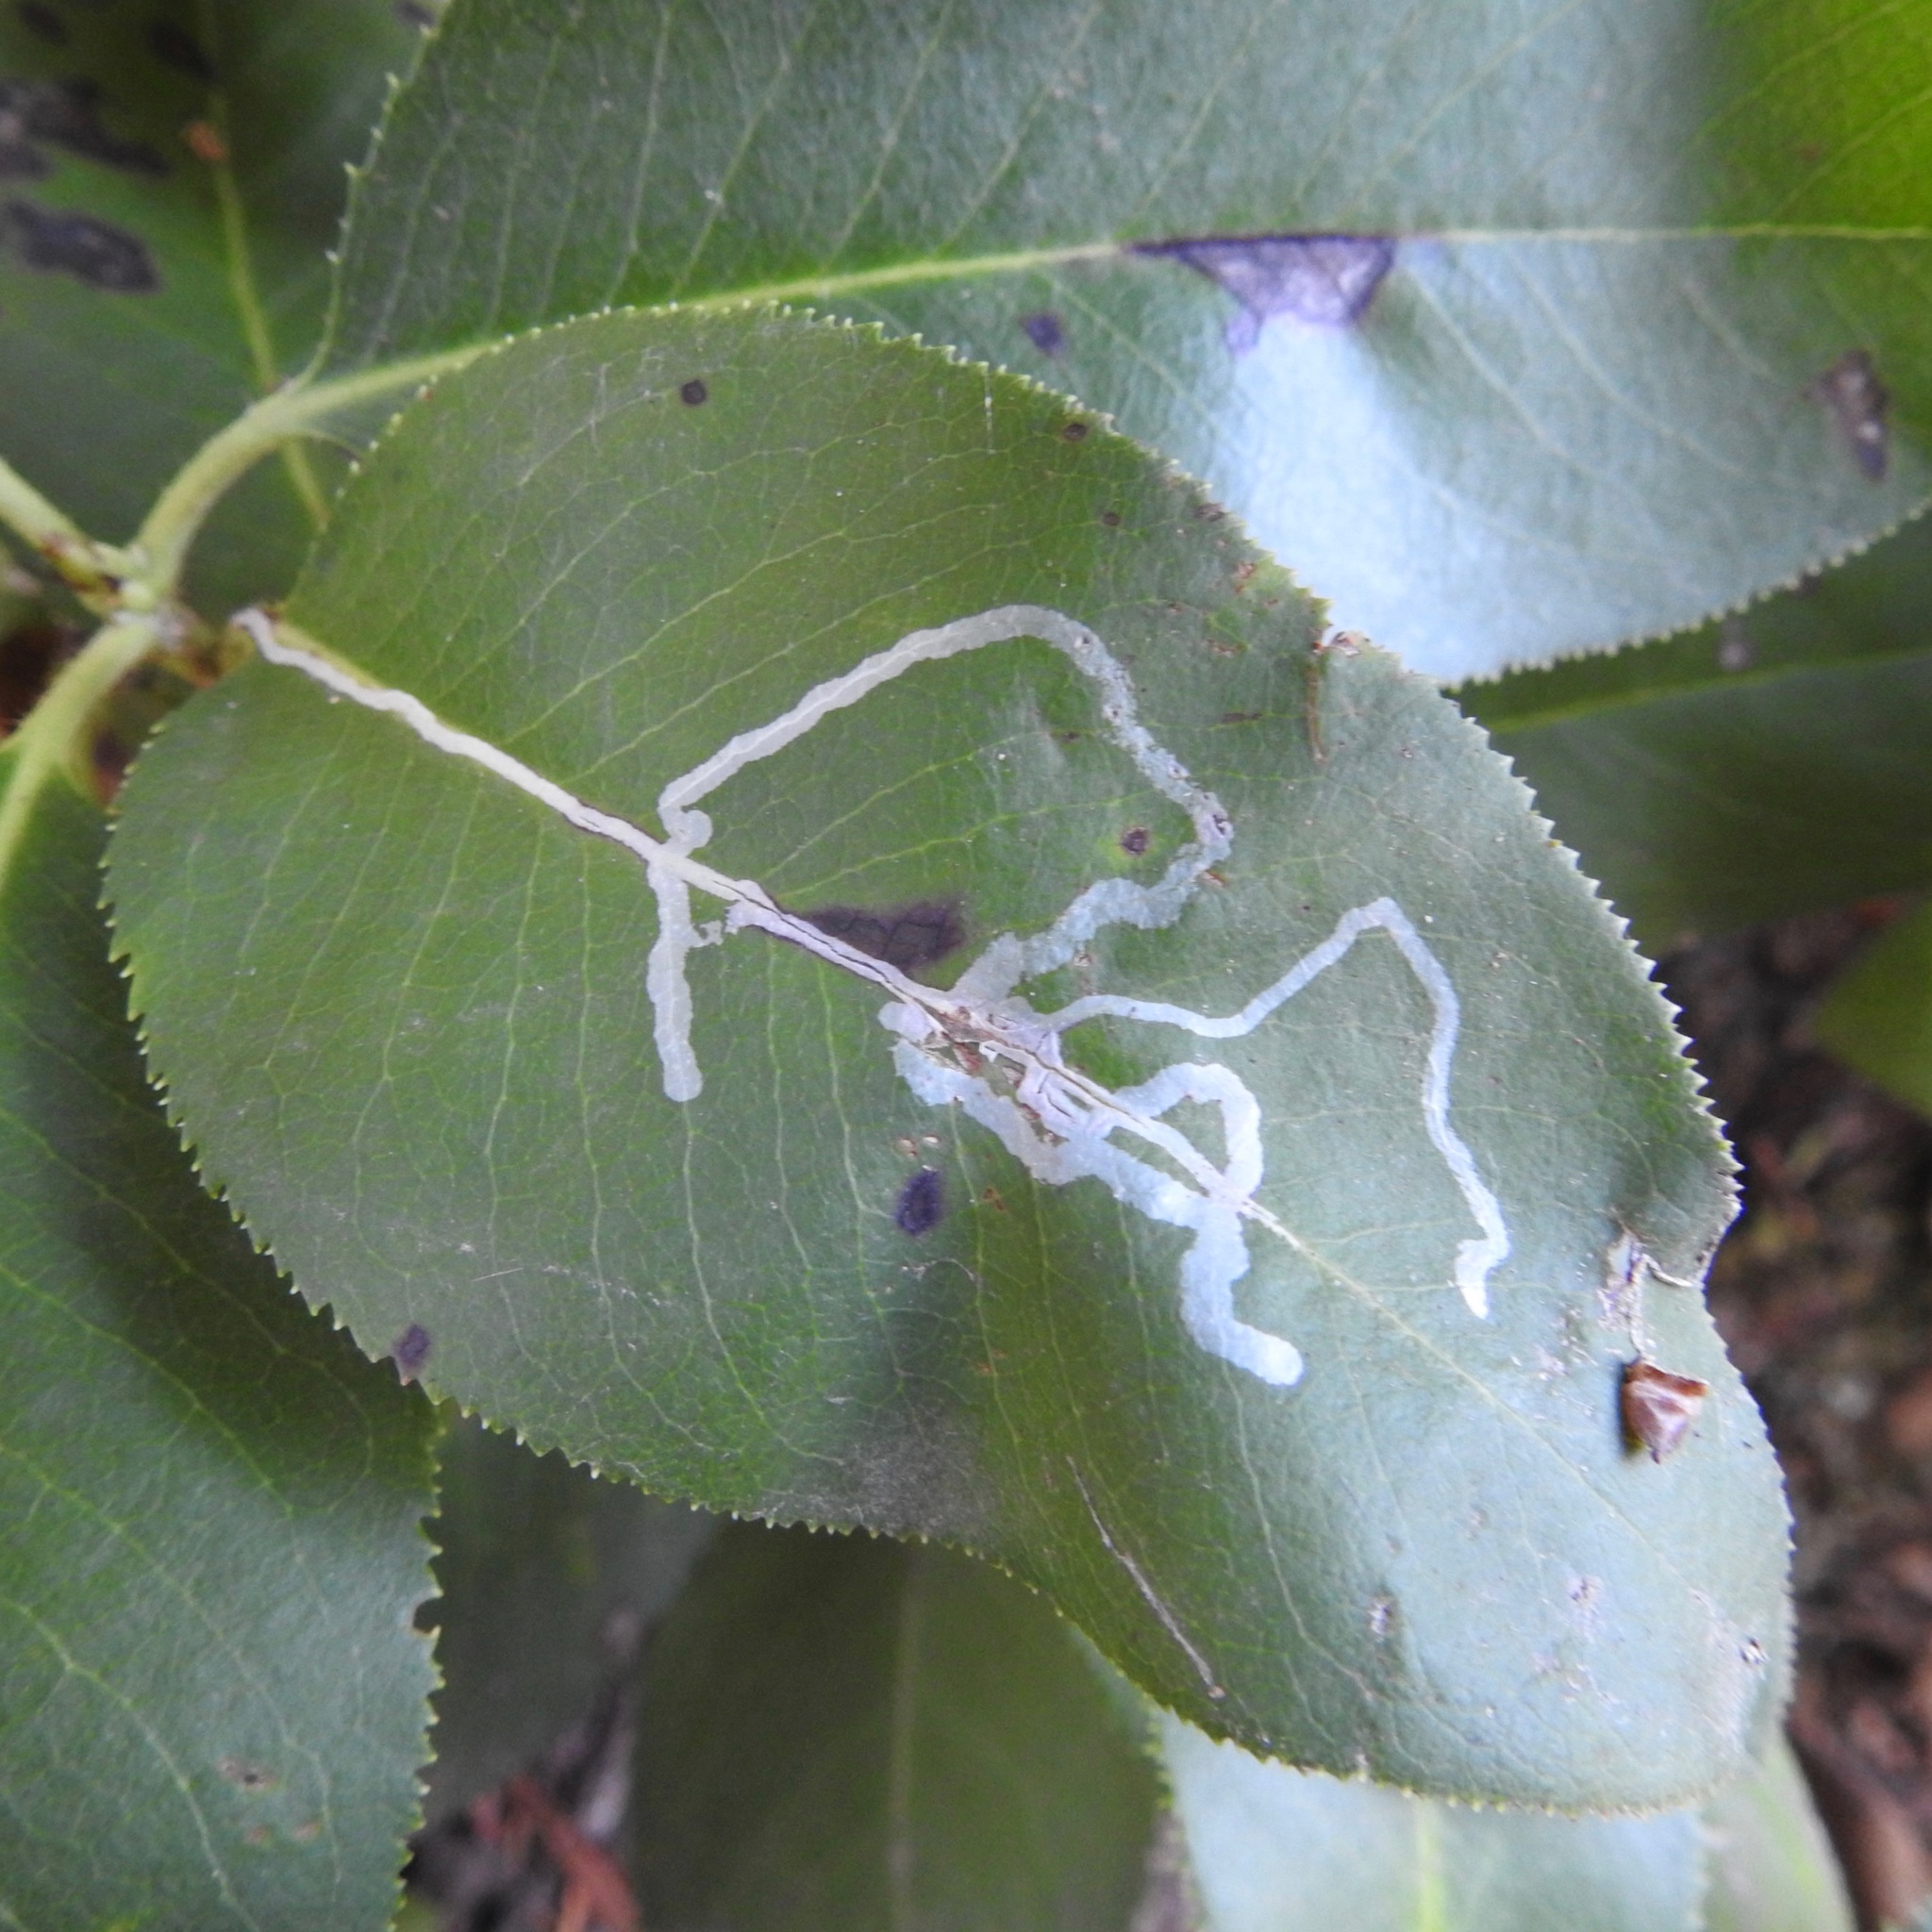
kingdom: Plantae
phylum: Tracheophyta
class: Magnoliopsida
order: Ericales
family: Ericaceae
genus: Arbutus
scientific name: Arbutus menziesii
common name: Pacific madrone
